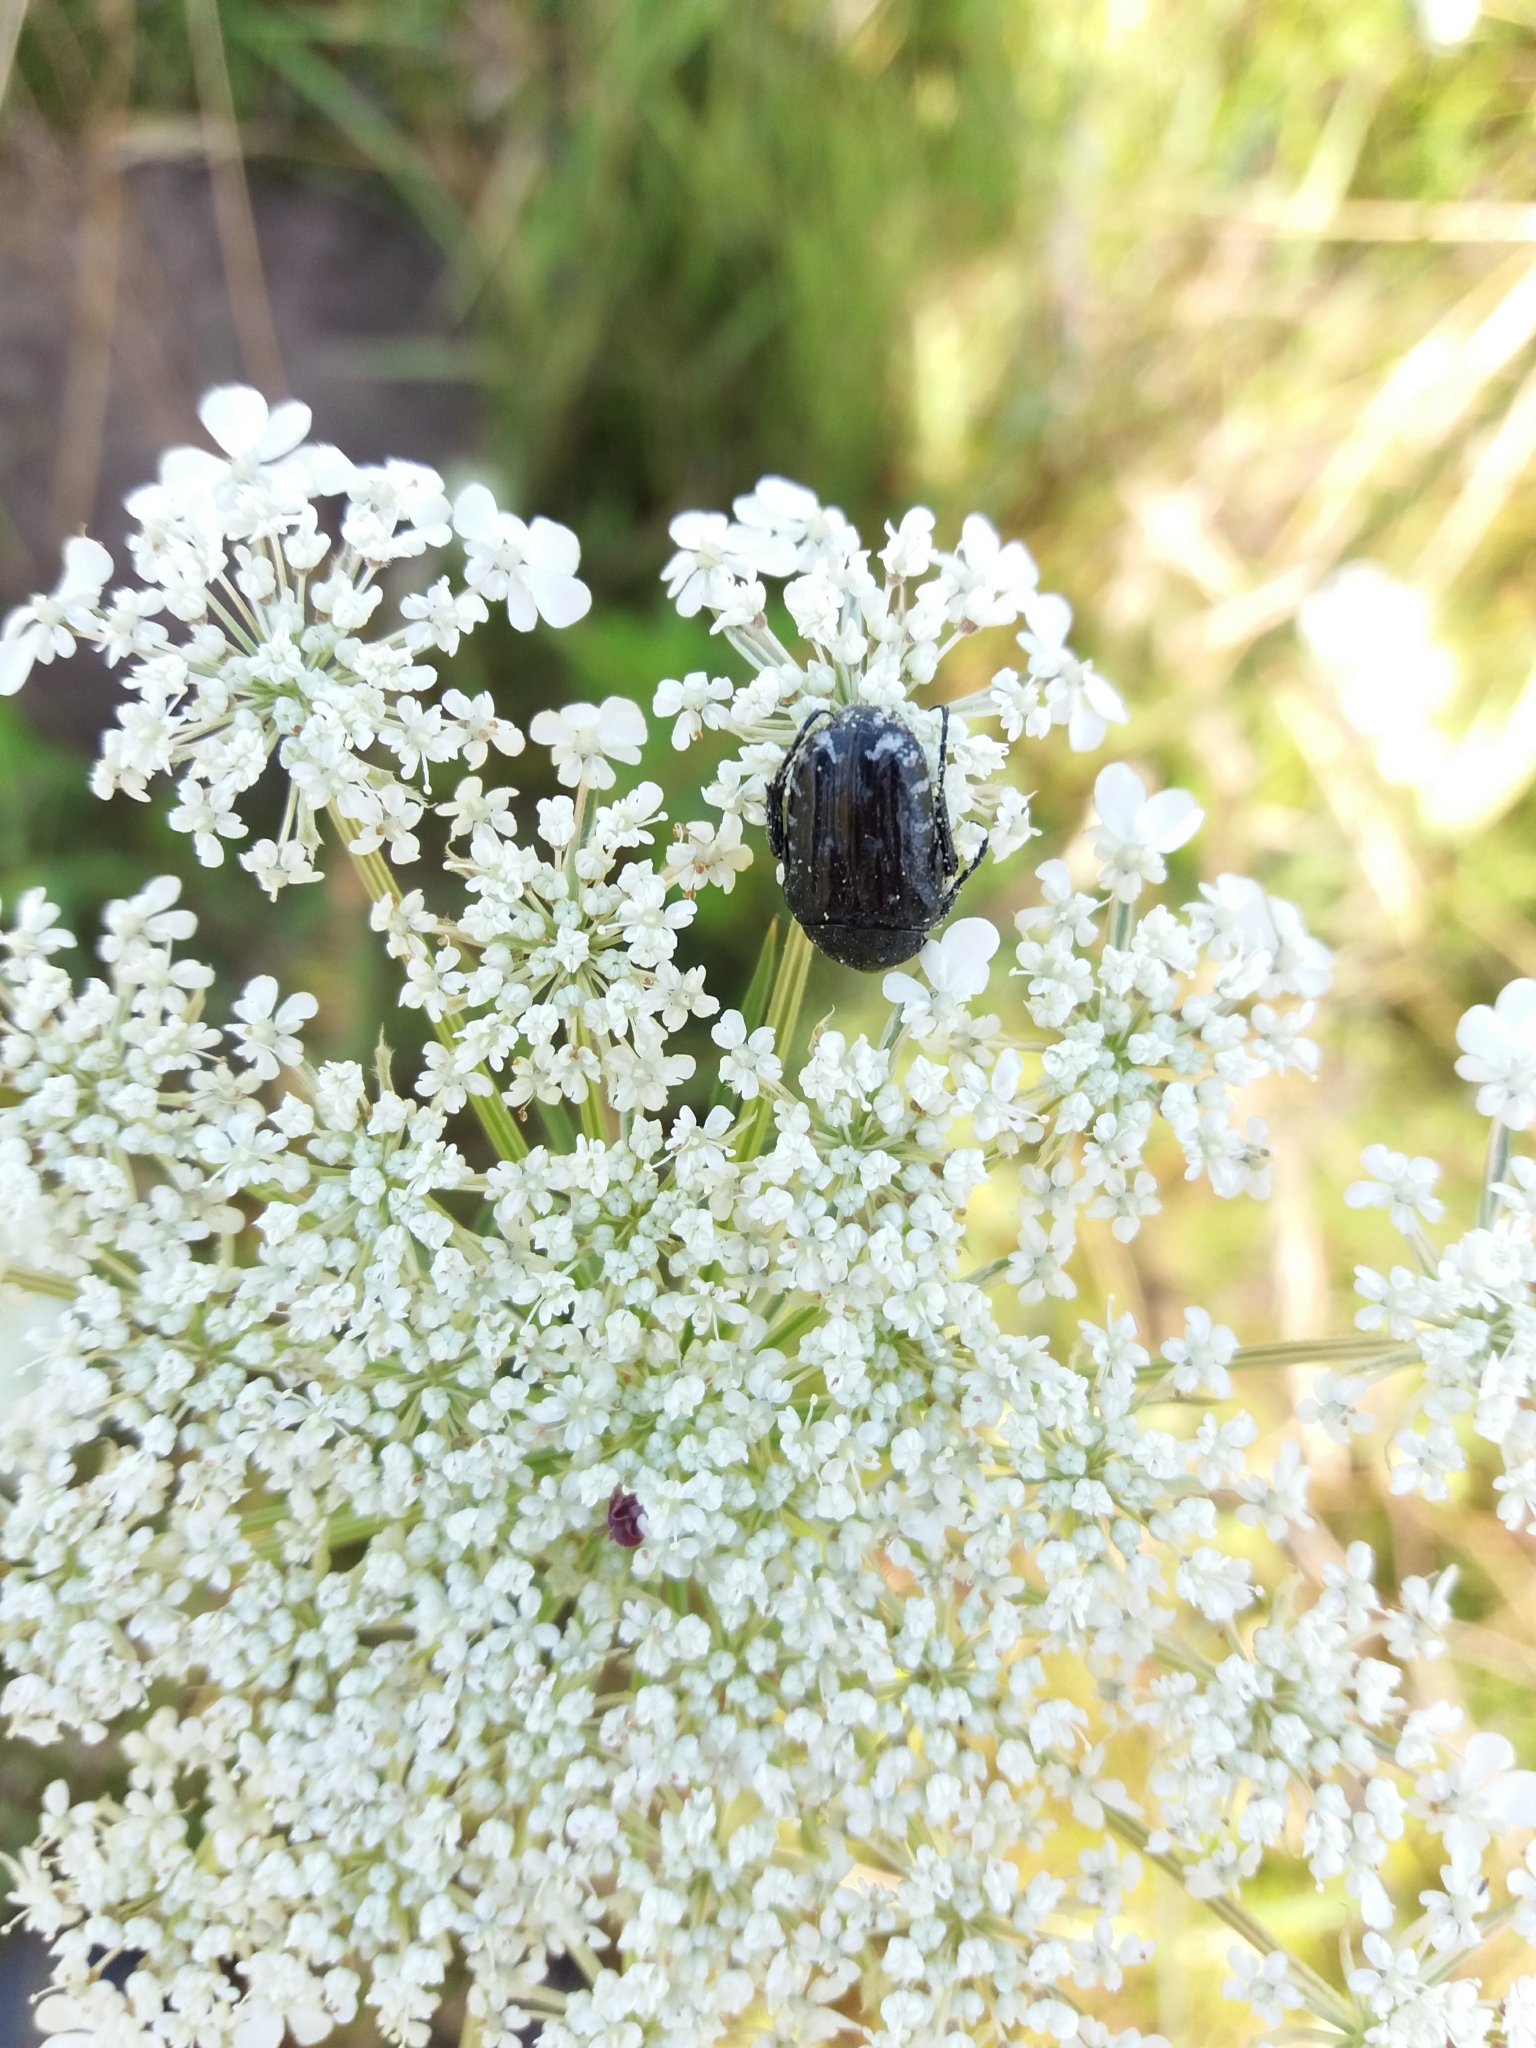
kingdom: Animalia
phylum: Arthropoda
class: Insecta
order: Coleoptera
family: Scarabaeidae
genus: Oxythyrea
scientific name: Oxythyrea funesta
